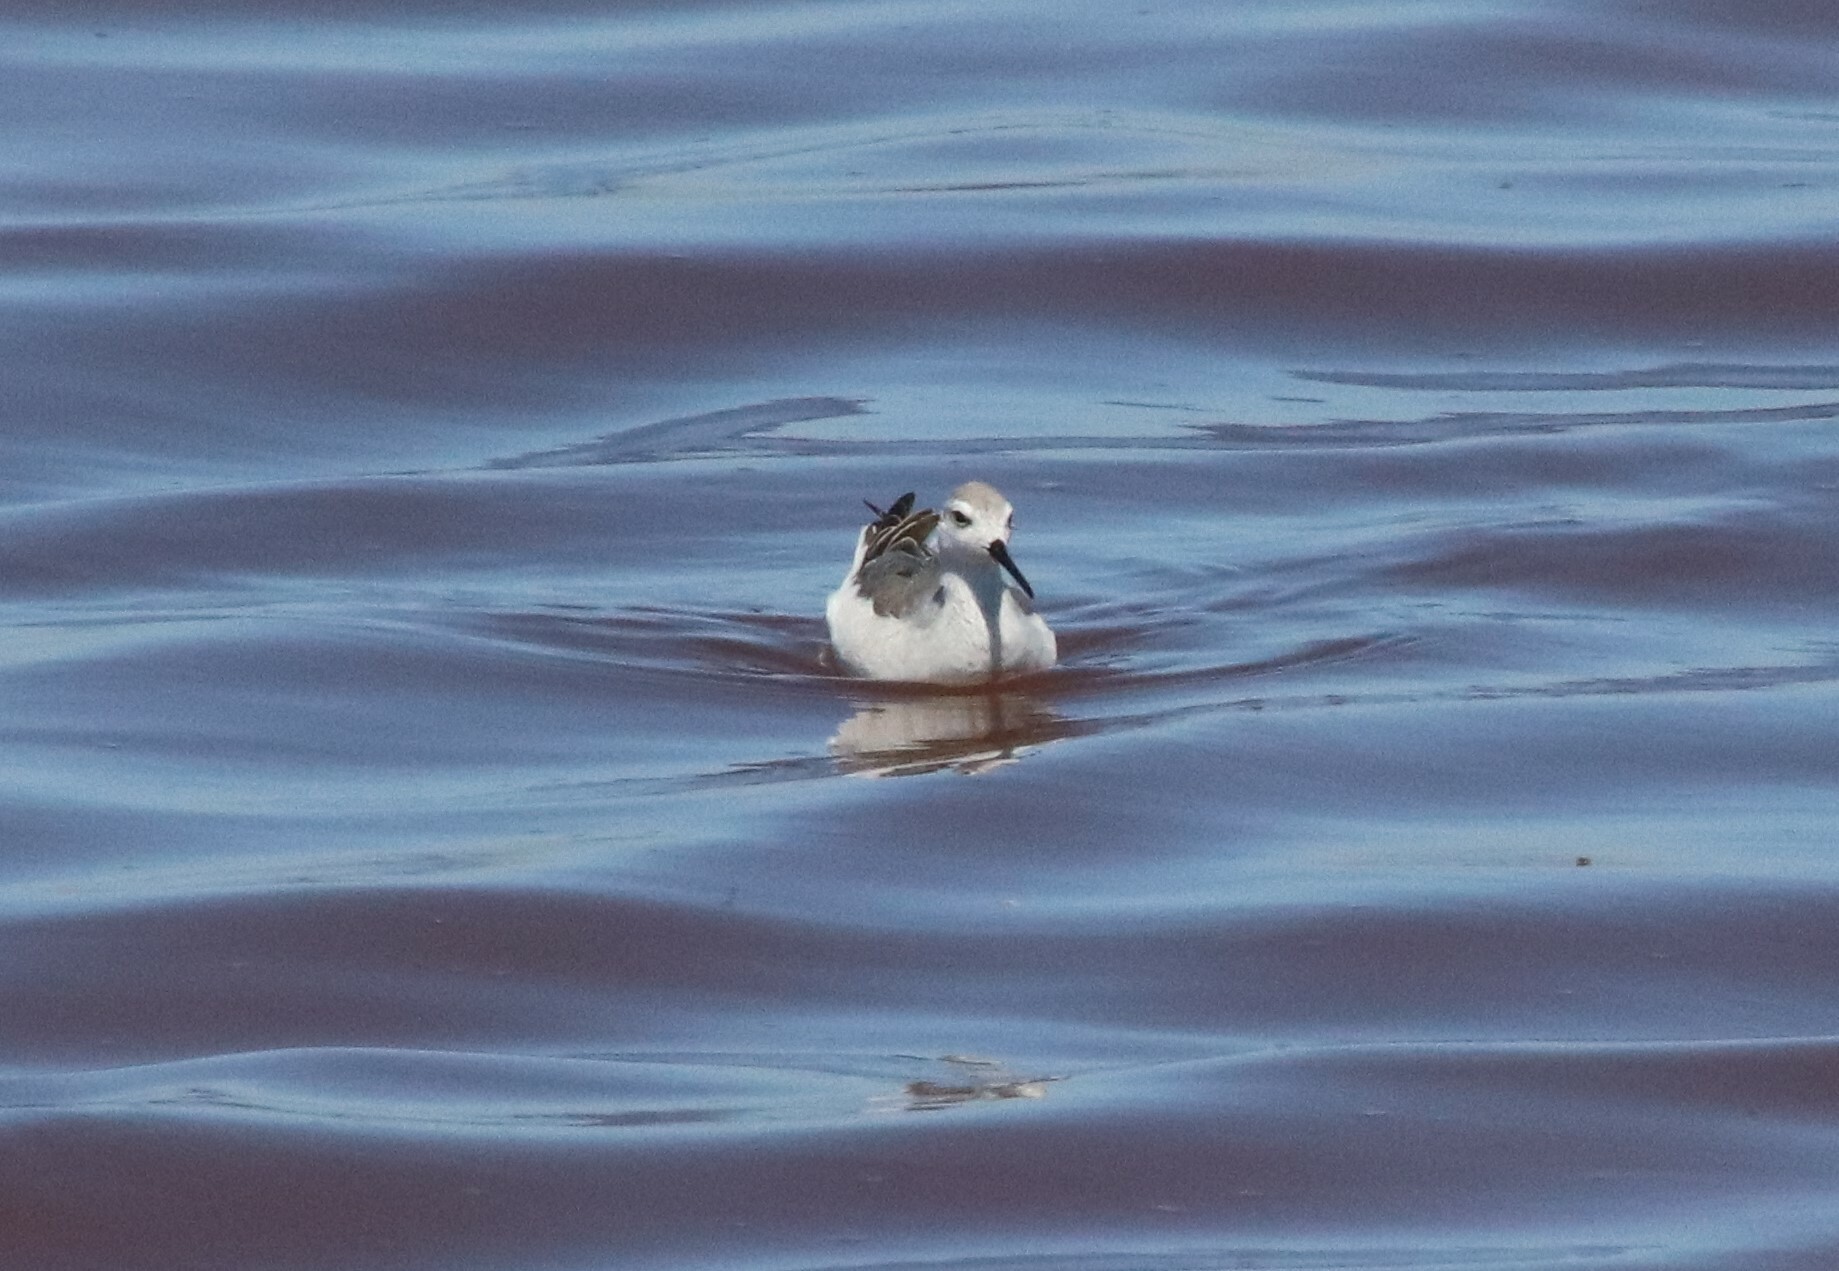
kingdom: Animalia
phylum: Chordata
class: Aves
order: Charadriiformes
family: Scolopacidae
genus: Phalaropus
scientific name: Phalaropus tricolor
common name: Wilson's phalarope
